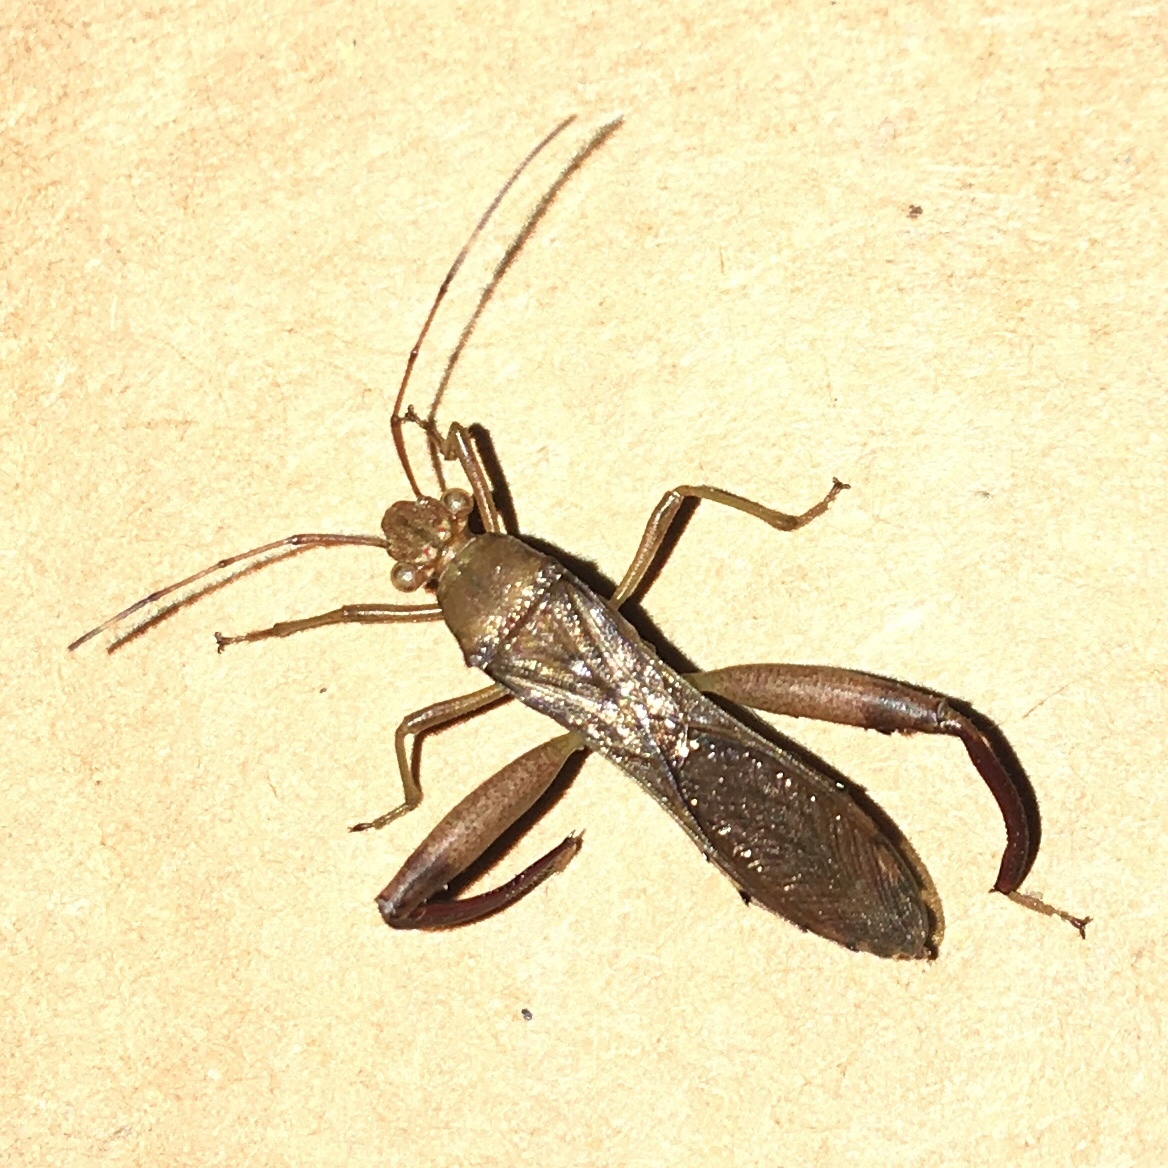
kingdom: Animalia
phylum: Arthropoda
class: Insecta
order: Hemiptera
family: Alydidae
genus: Hyalymenus
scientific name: Hyalymenus tarsatus
